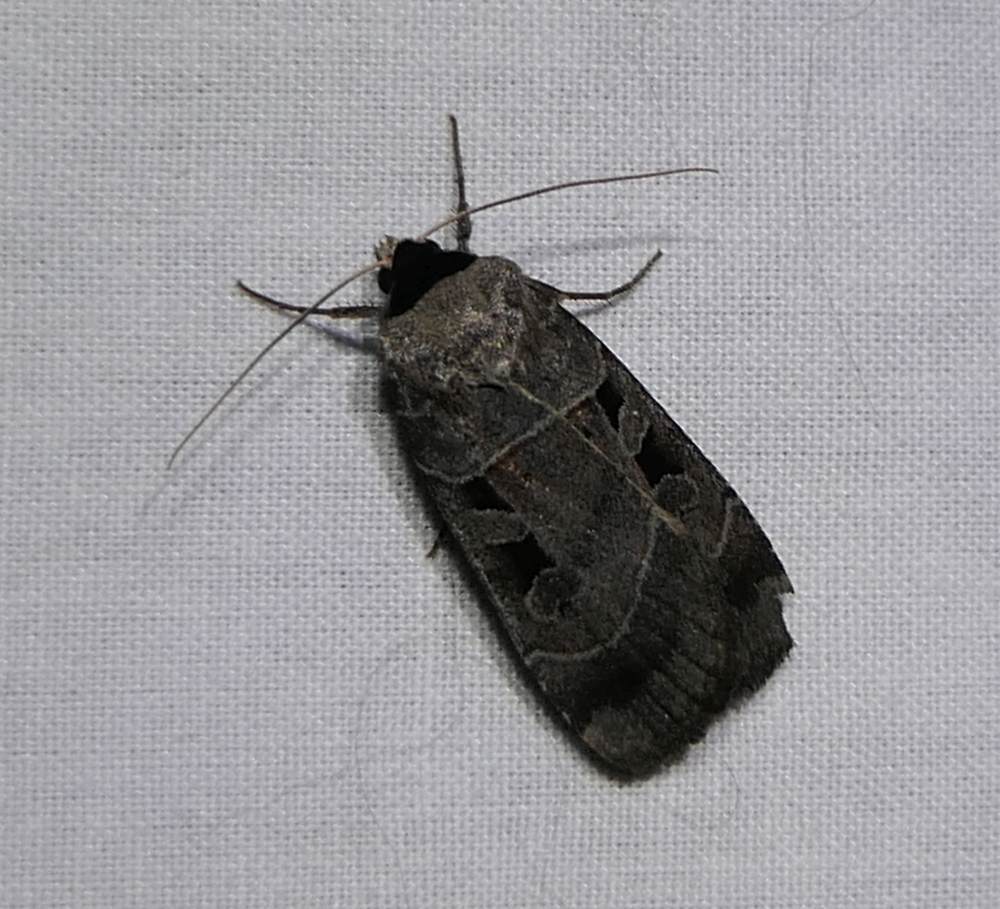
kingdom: Animalia
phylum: Arthropoda
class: Insecta
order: Lepidoptera
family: Noctuidae
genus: Agnorisma
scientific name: Agnorisma bugrai
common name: Collared dart
